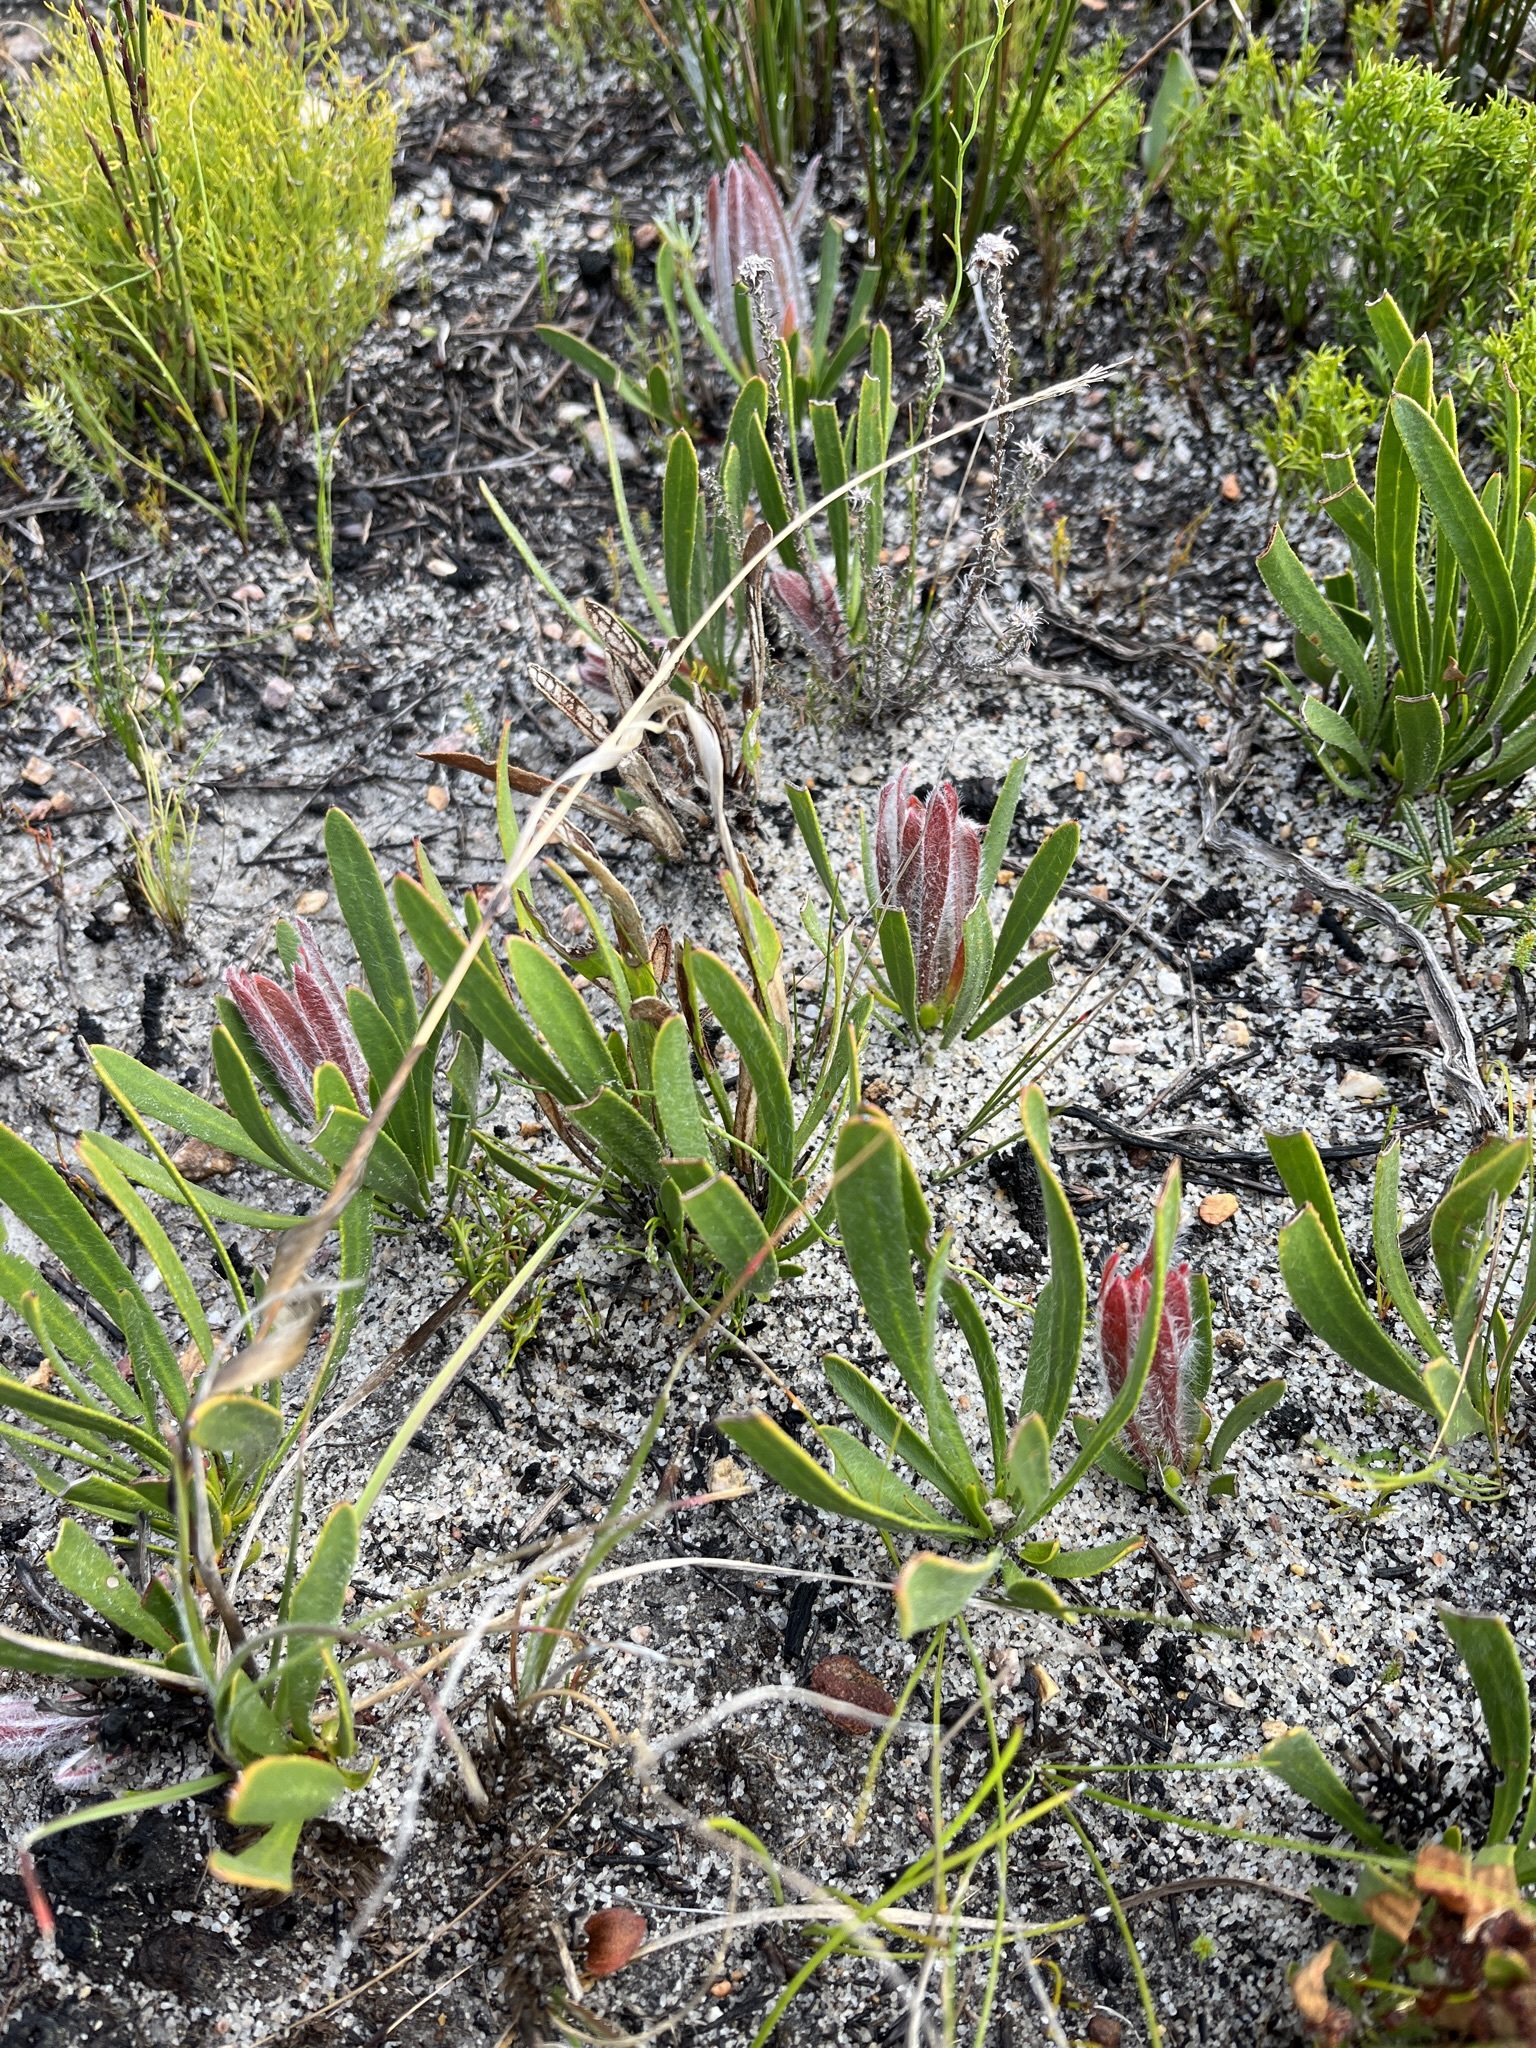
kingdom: Plantae
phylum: Tracheophyta
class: Magnoliopsida
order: Proteales
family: Proteaceae
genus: Protea
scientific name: Protea aspera
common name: Rough-leaf sugarbush
